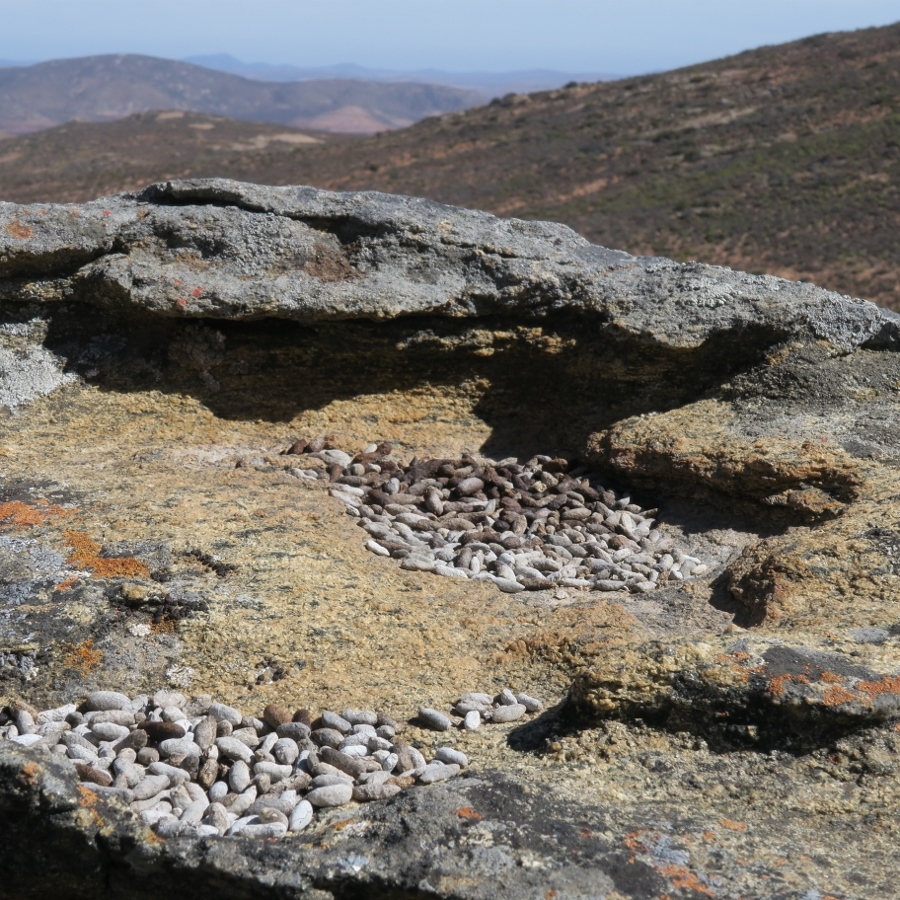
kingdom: Animalia
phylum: Chordata
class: Mammalia
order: Rodentia
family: Petromuridae
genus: Petromus
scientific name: Petromus typicus
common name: Dassie rat
